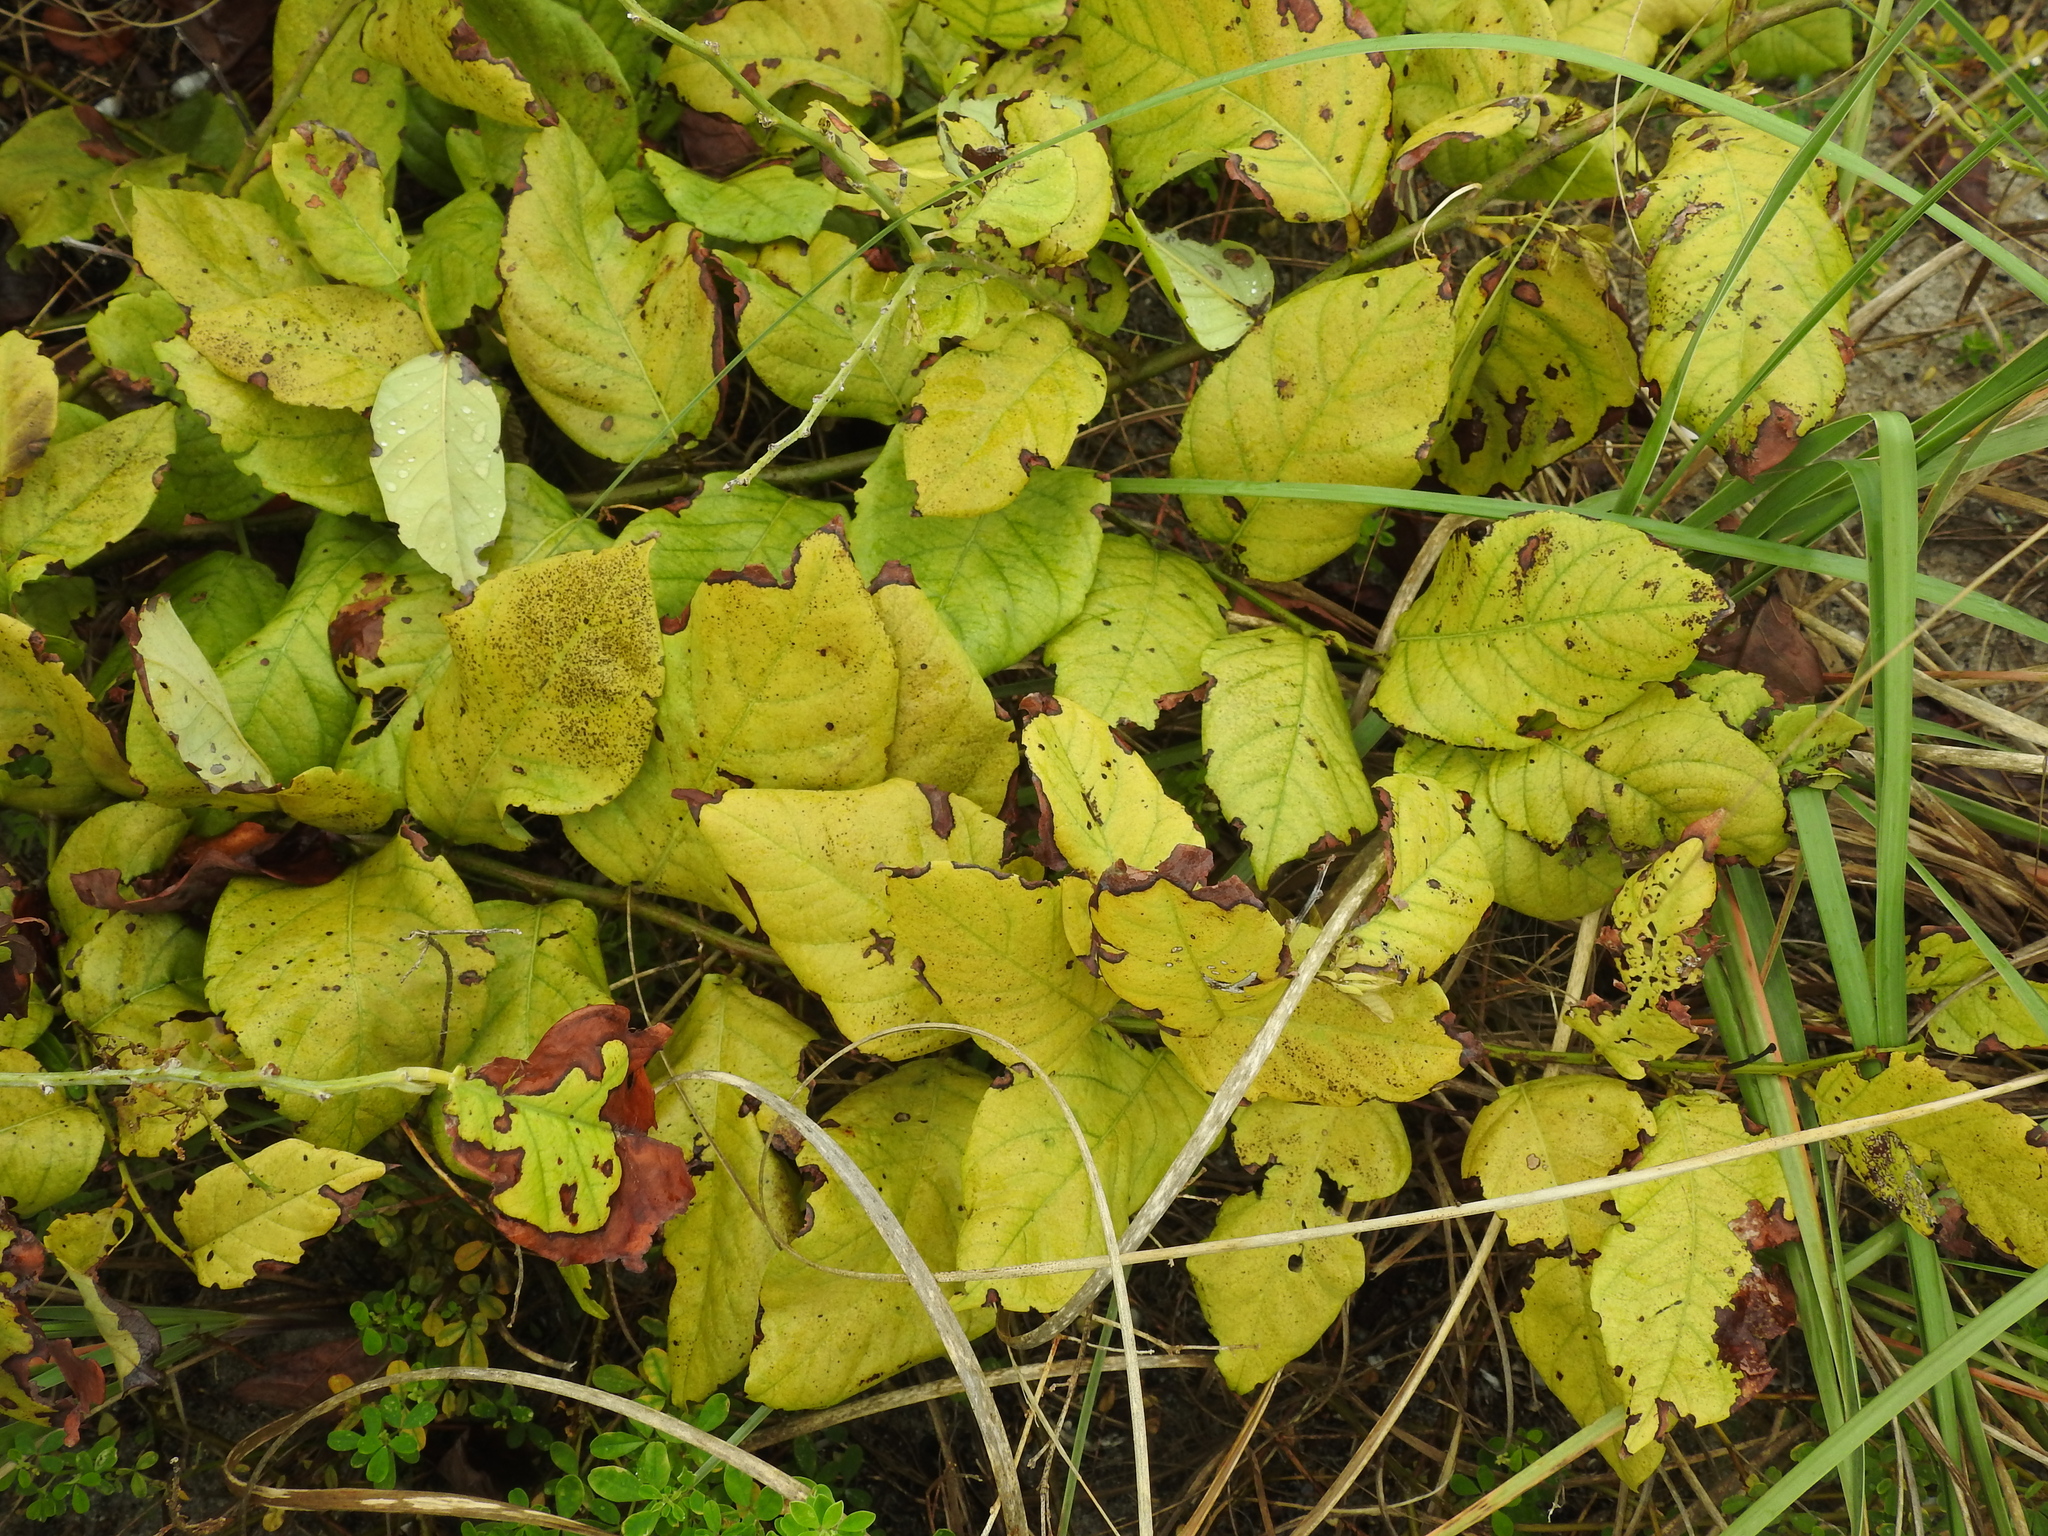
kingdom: Plantae
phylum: Tracheophyta
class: Magnoliopsida
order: Fabales
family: Fabaceae
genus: Dalbergia
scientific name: Dalbergia ecastaphyllum
